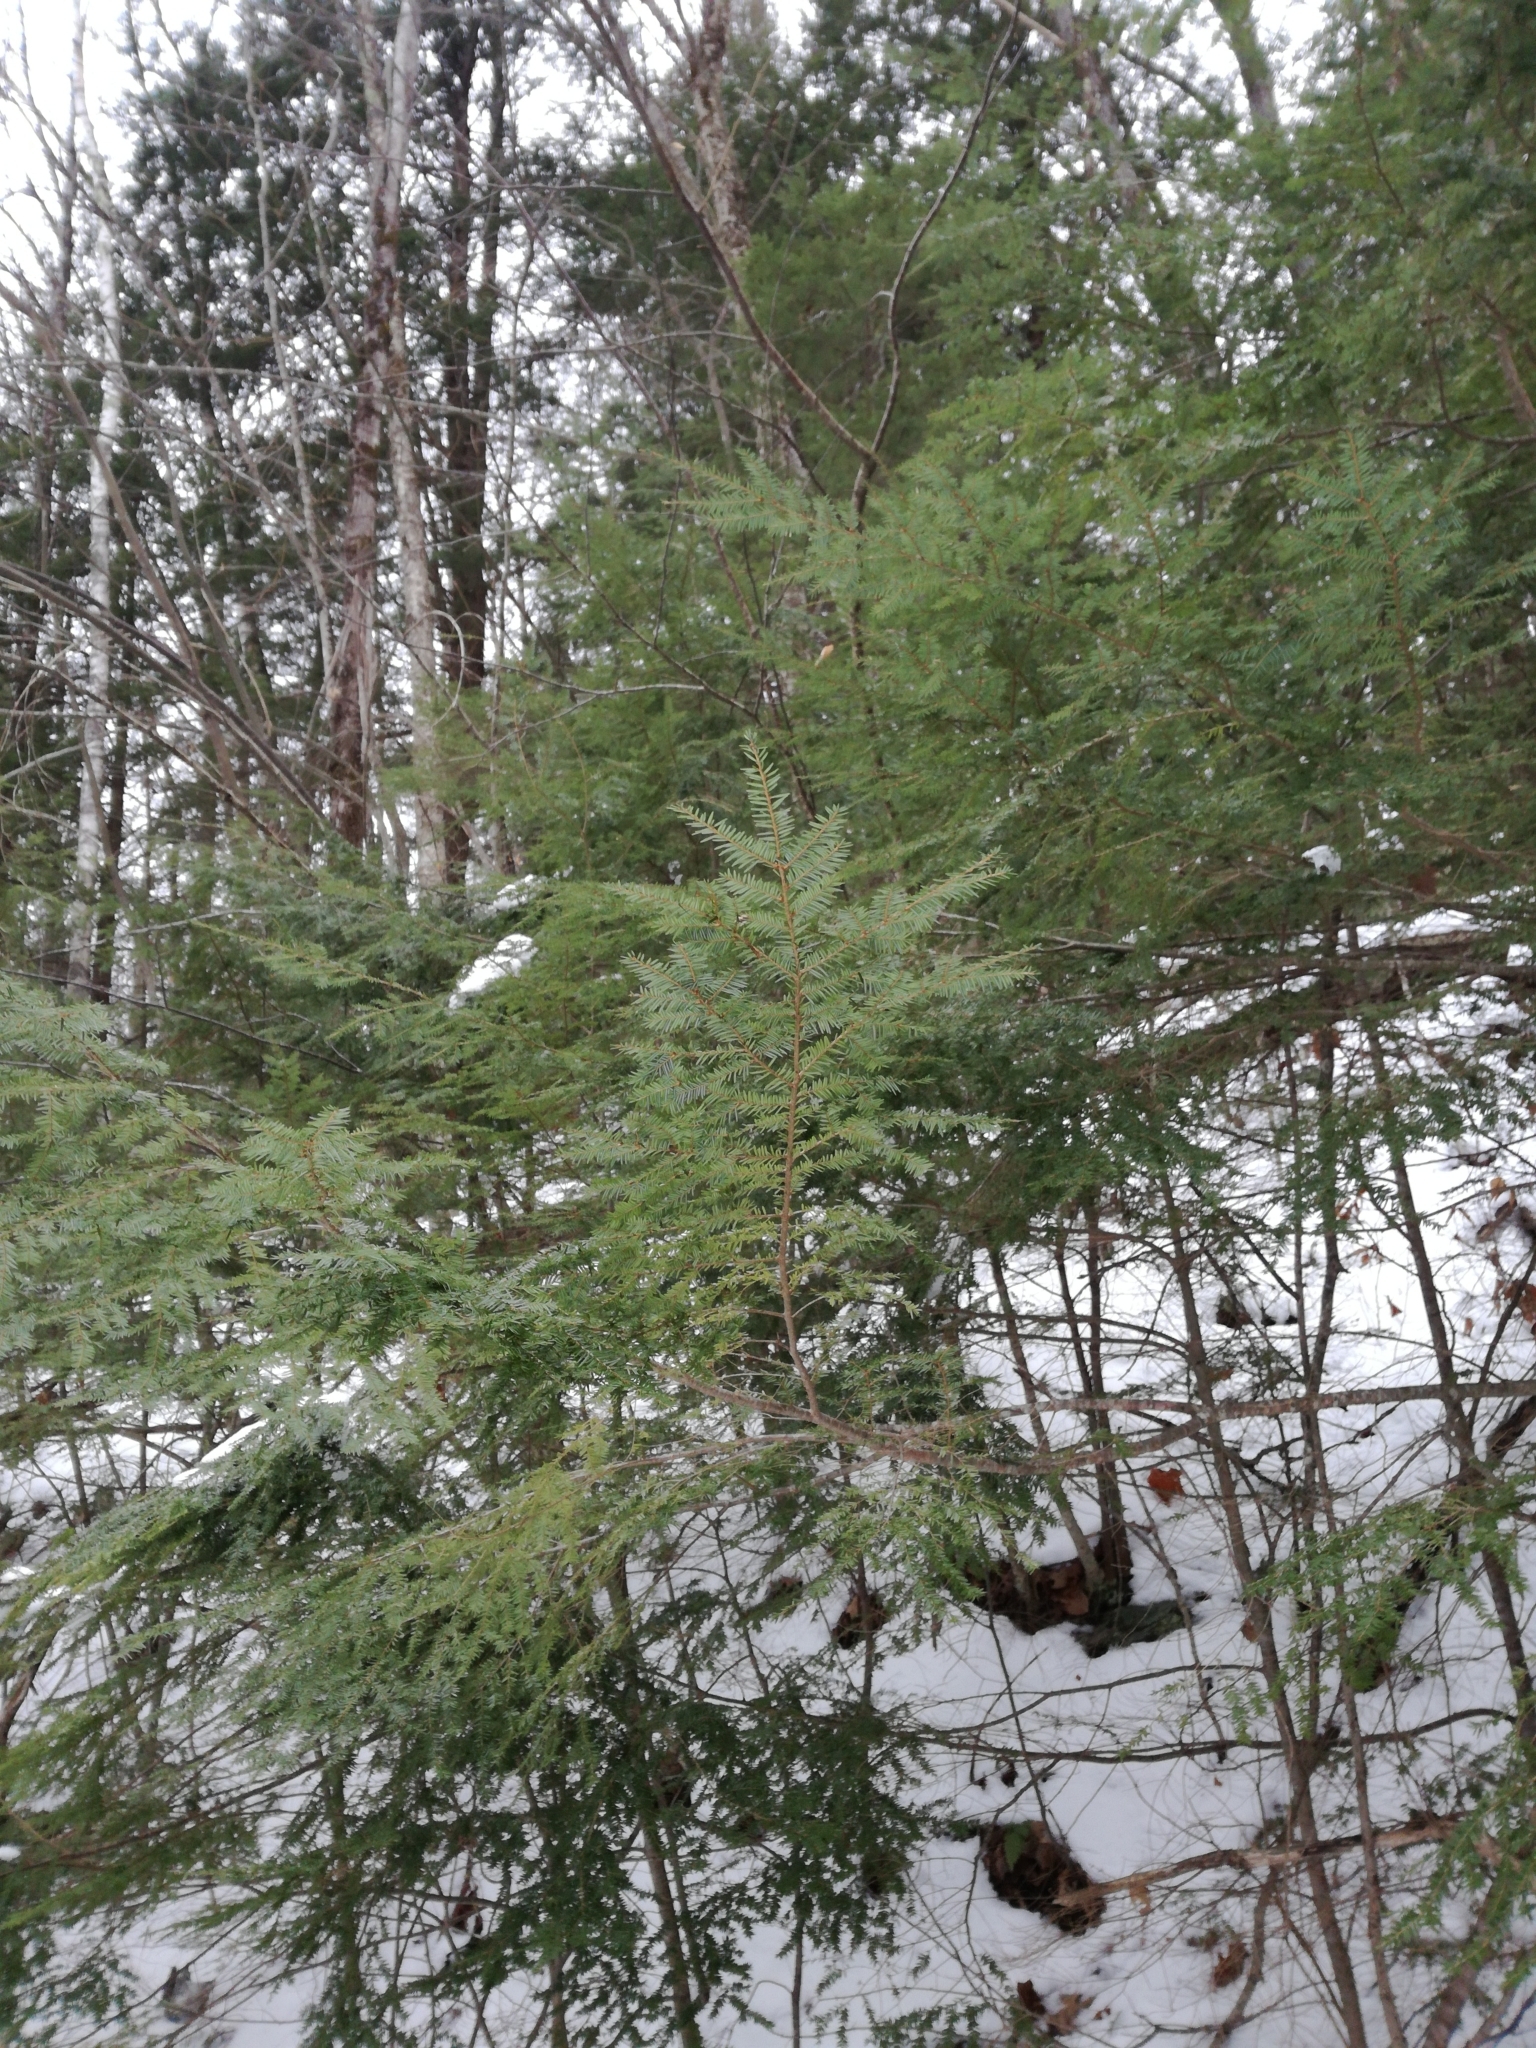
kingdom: Plantae
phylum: Tracheophyta
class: Pinopsida
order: Pinales
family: Pinaceae
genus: Tsuga
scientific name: Tsuga canadensis
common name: Eastern hemlock
